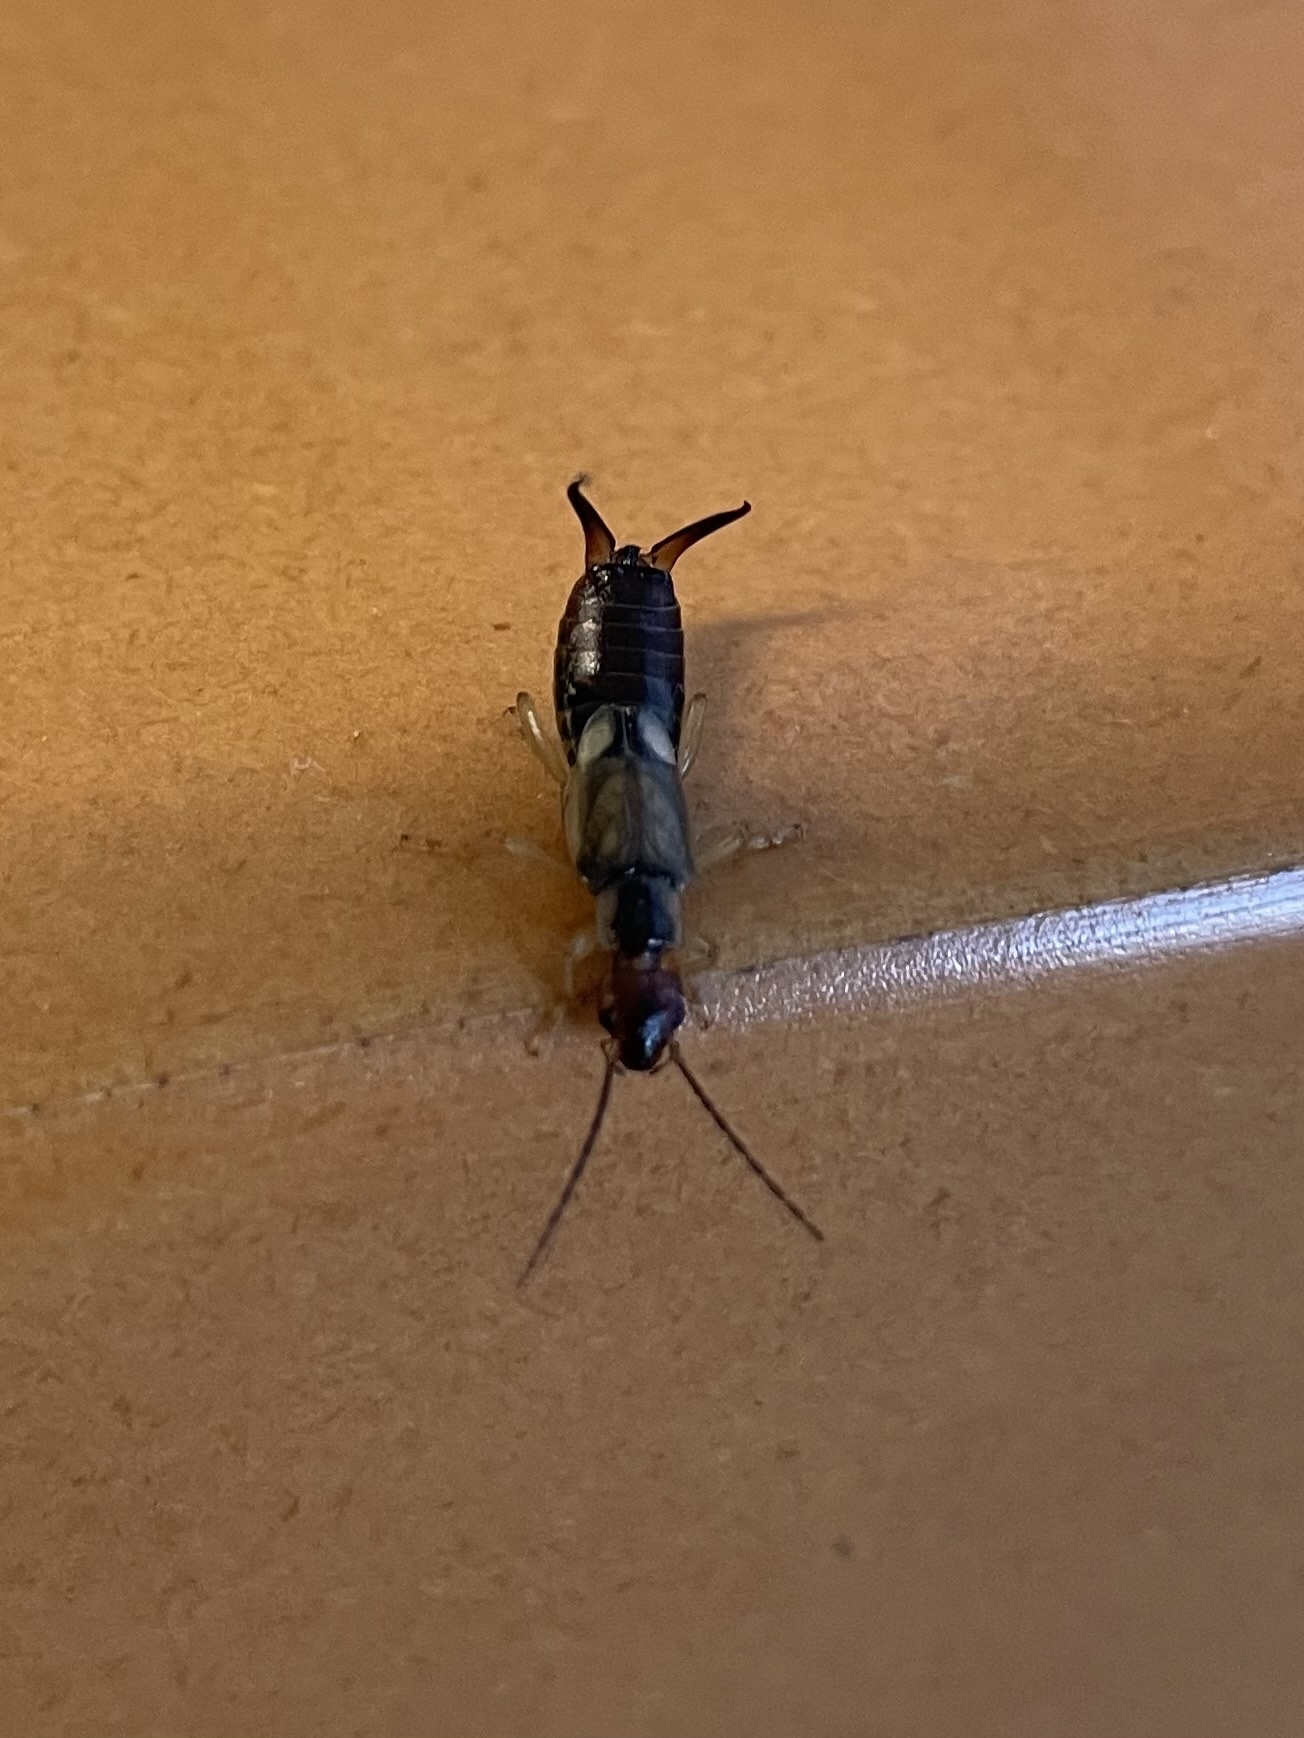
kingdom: Animalia
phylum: Arthropoda
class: Insecta
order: Dermaptera
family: Forficulidae
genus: Forficula
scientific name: Forficula
